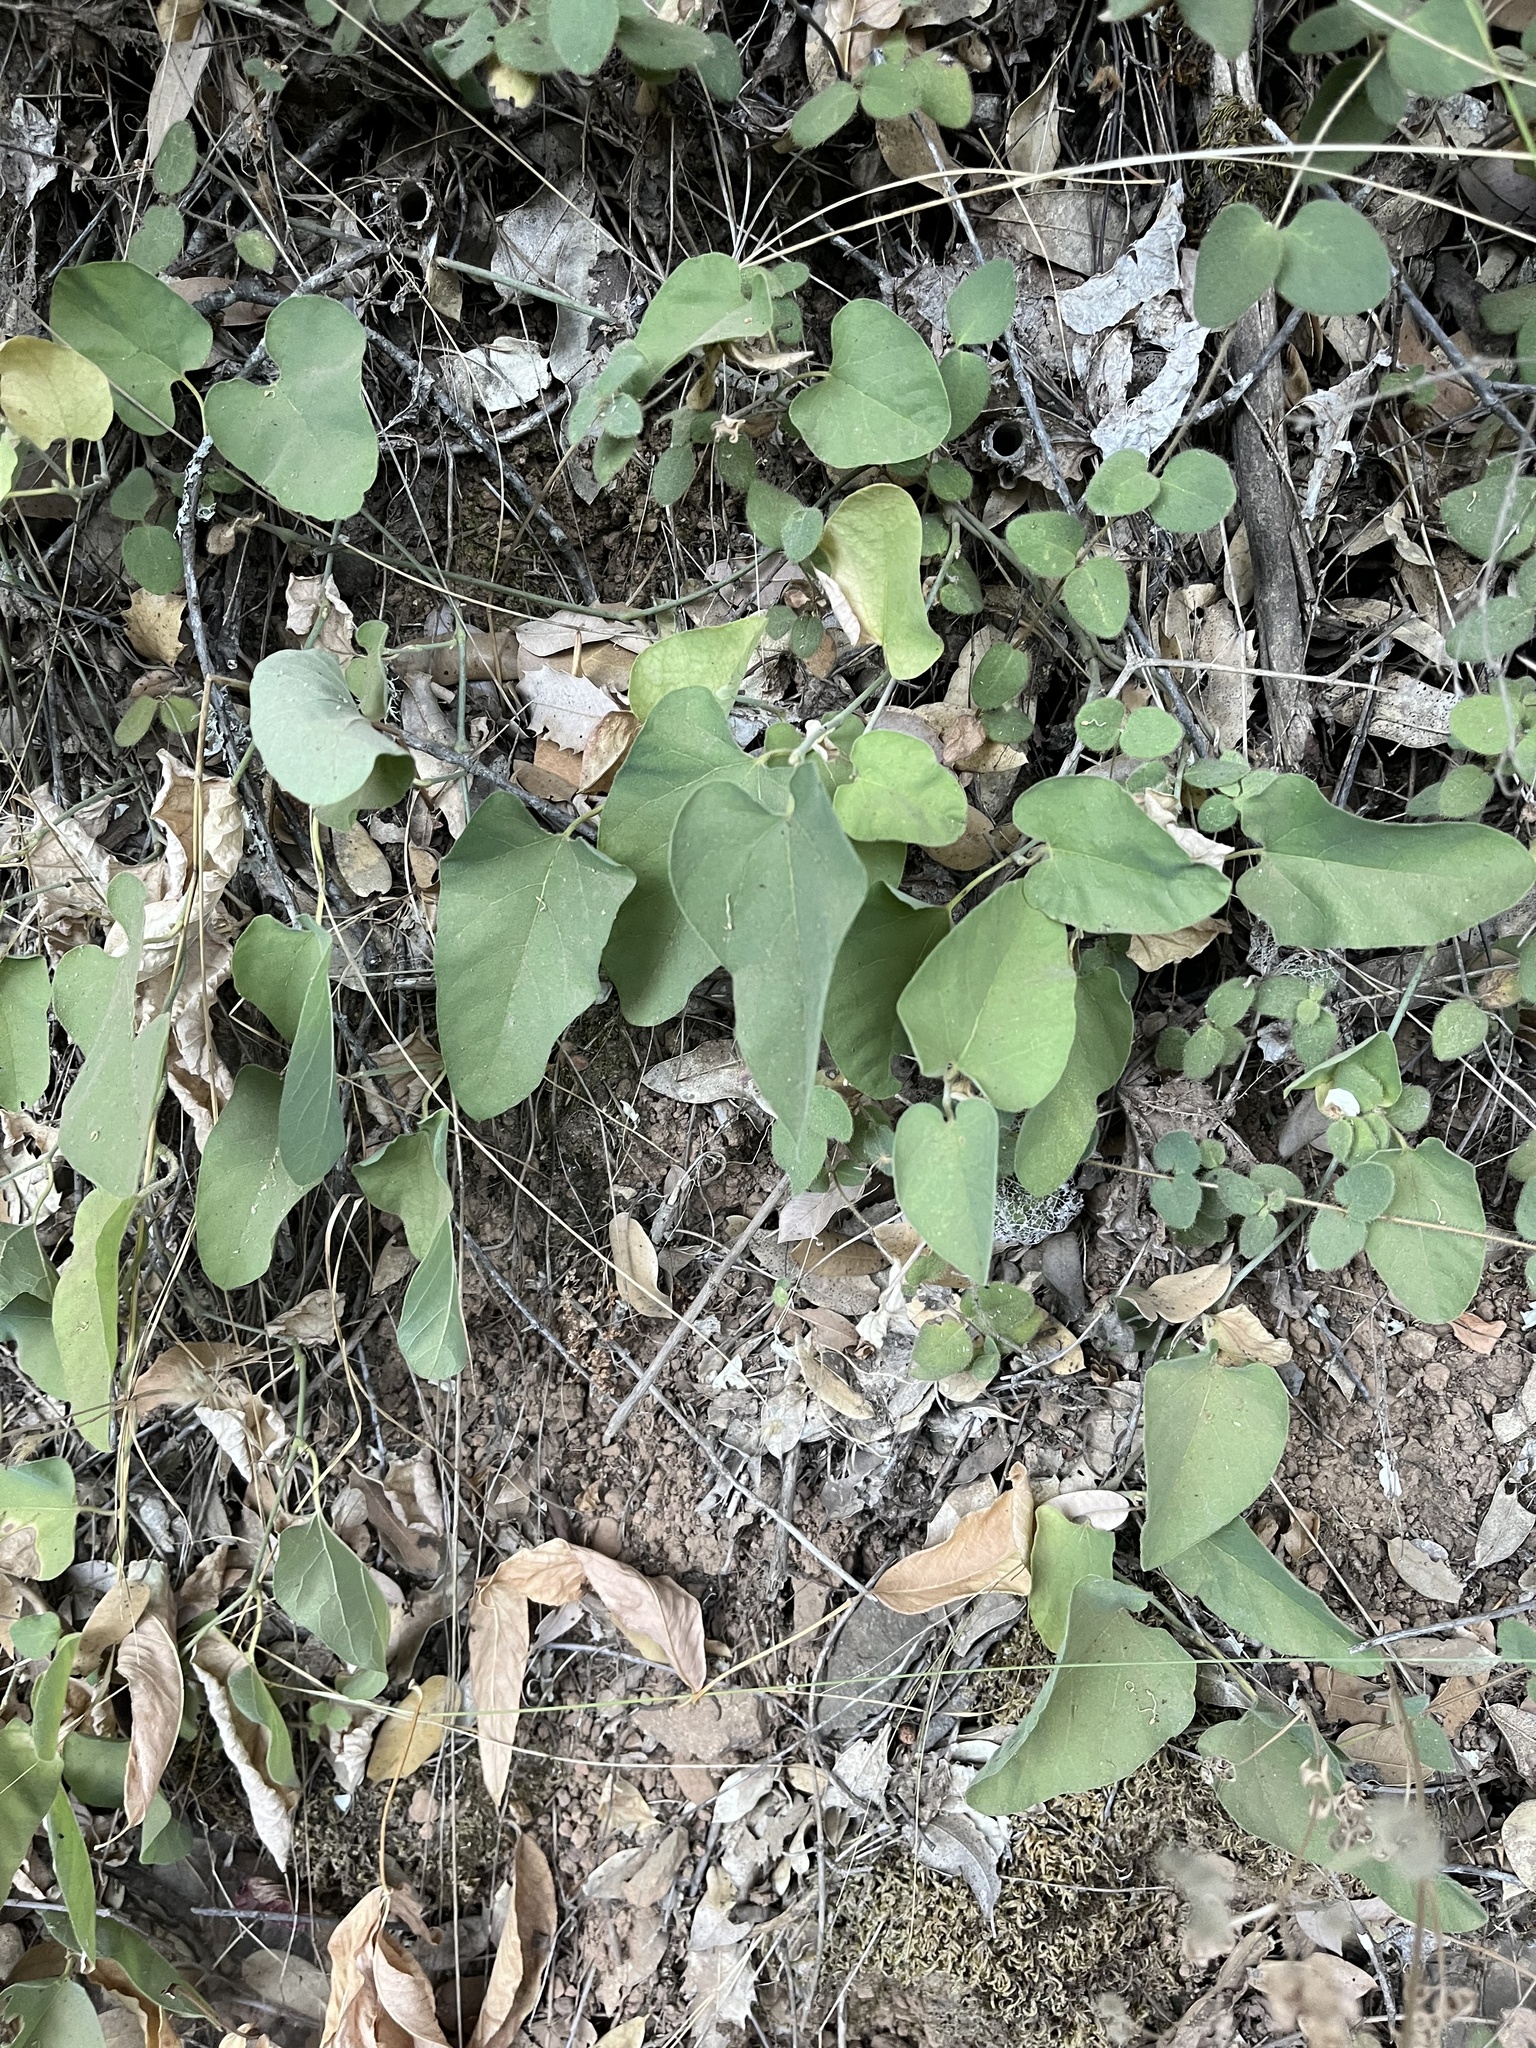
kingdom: Plantae
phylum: Tracheophyta
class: Magnoliopsida
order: Piperales
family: Aristolochiaceae
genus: Isotrema
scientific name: Isotrema californicum
